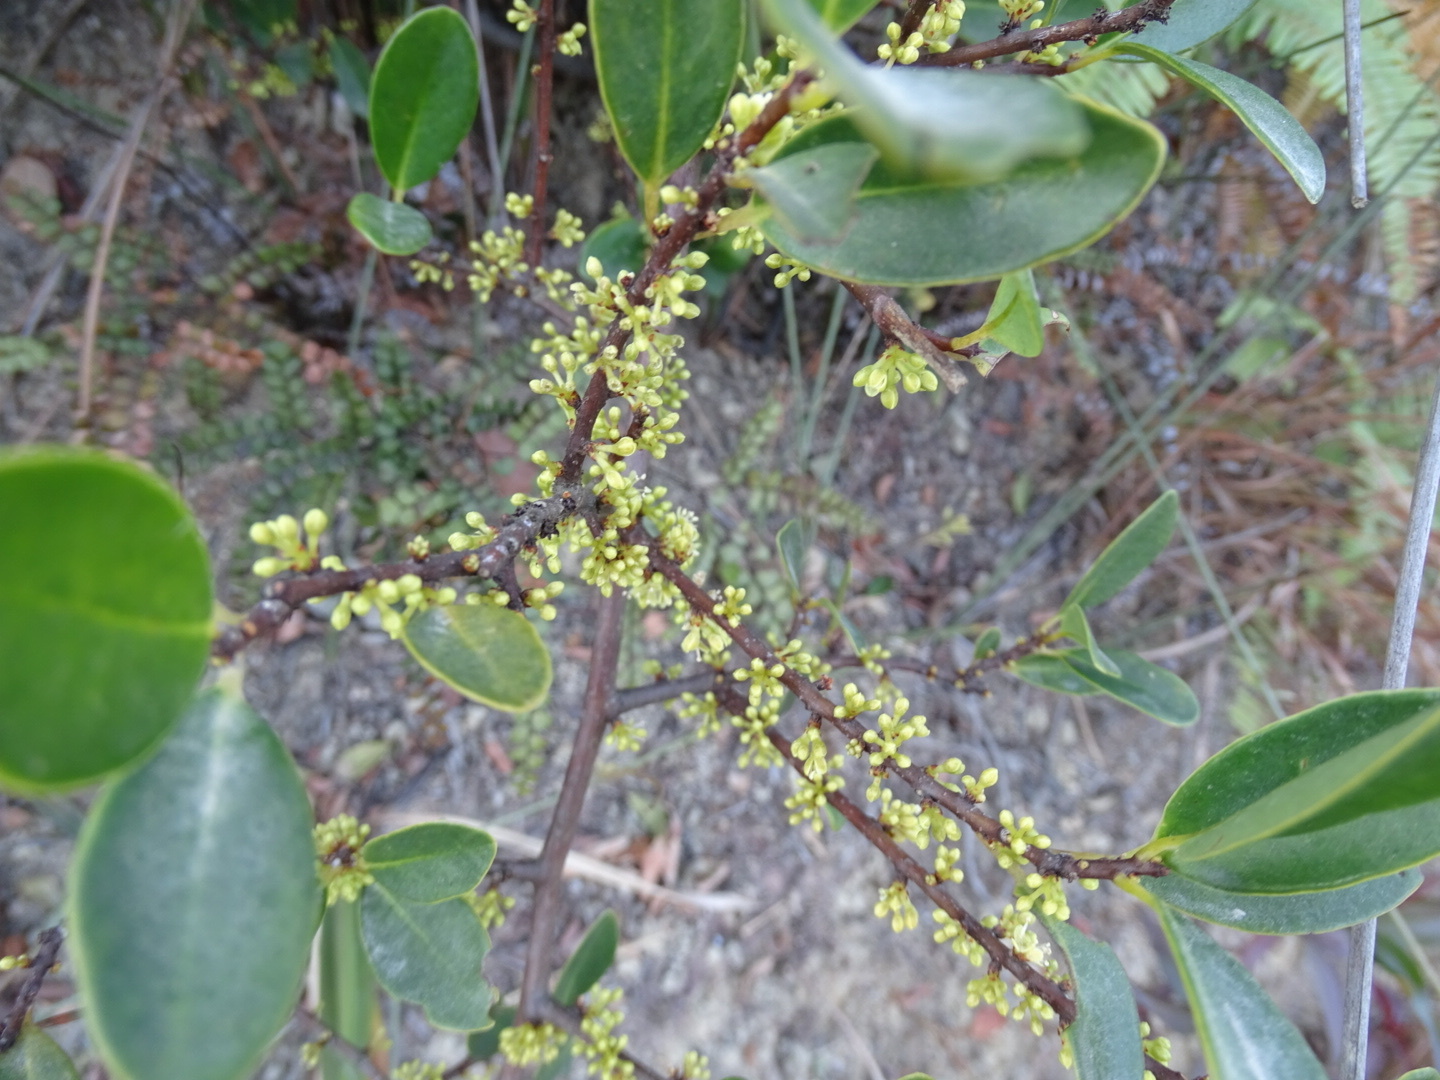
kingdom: Plantae
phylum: Tracheophyta
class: Magnoliopsida
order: Ericales
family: Primulaceae
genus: Embelia
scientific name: Embelia laeta
